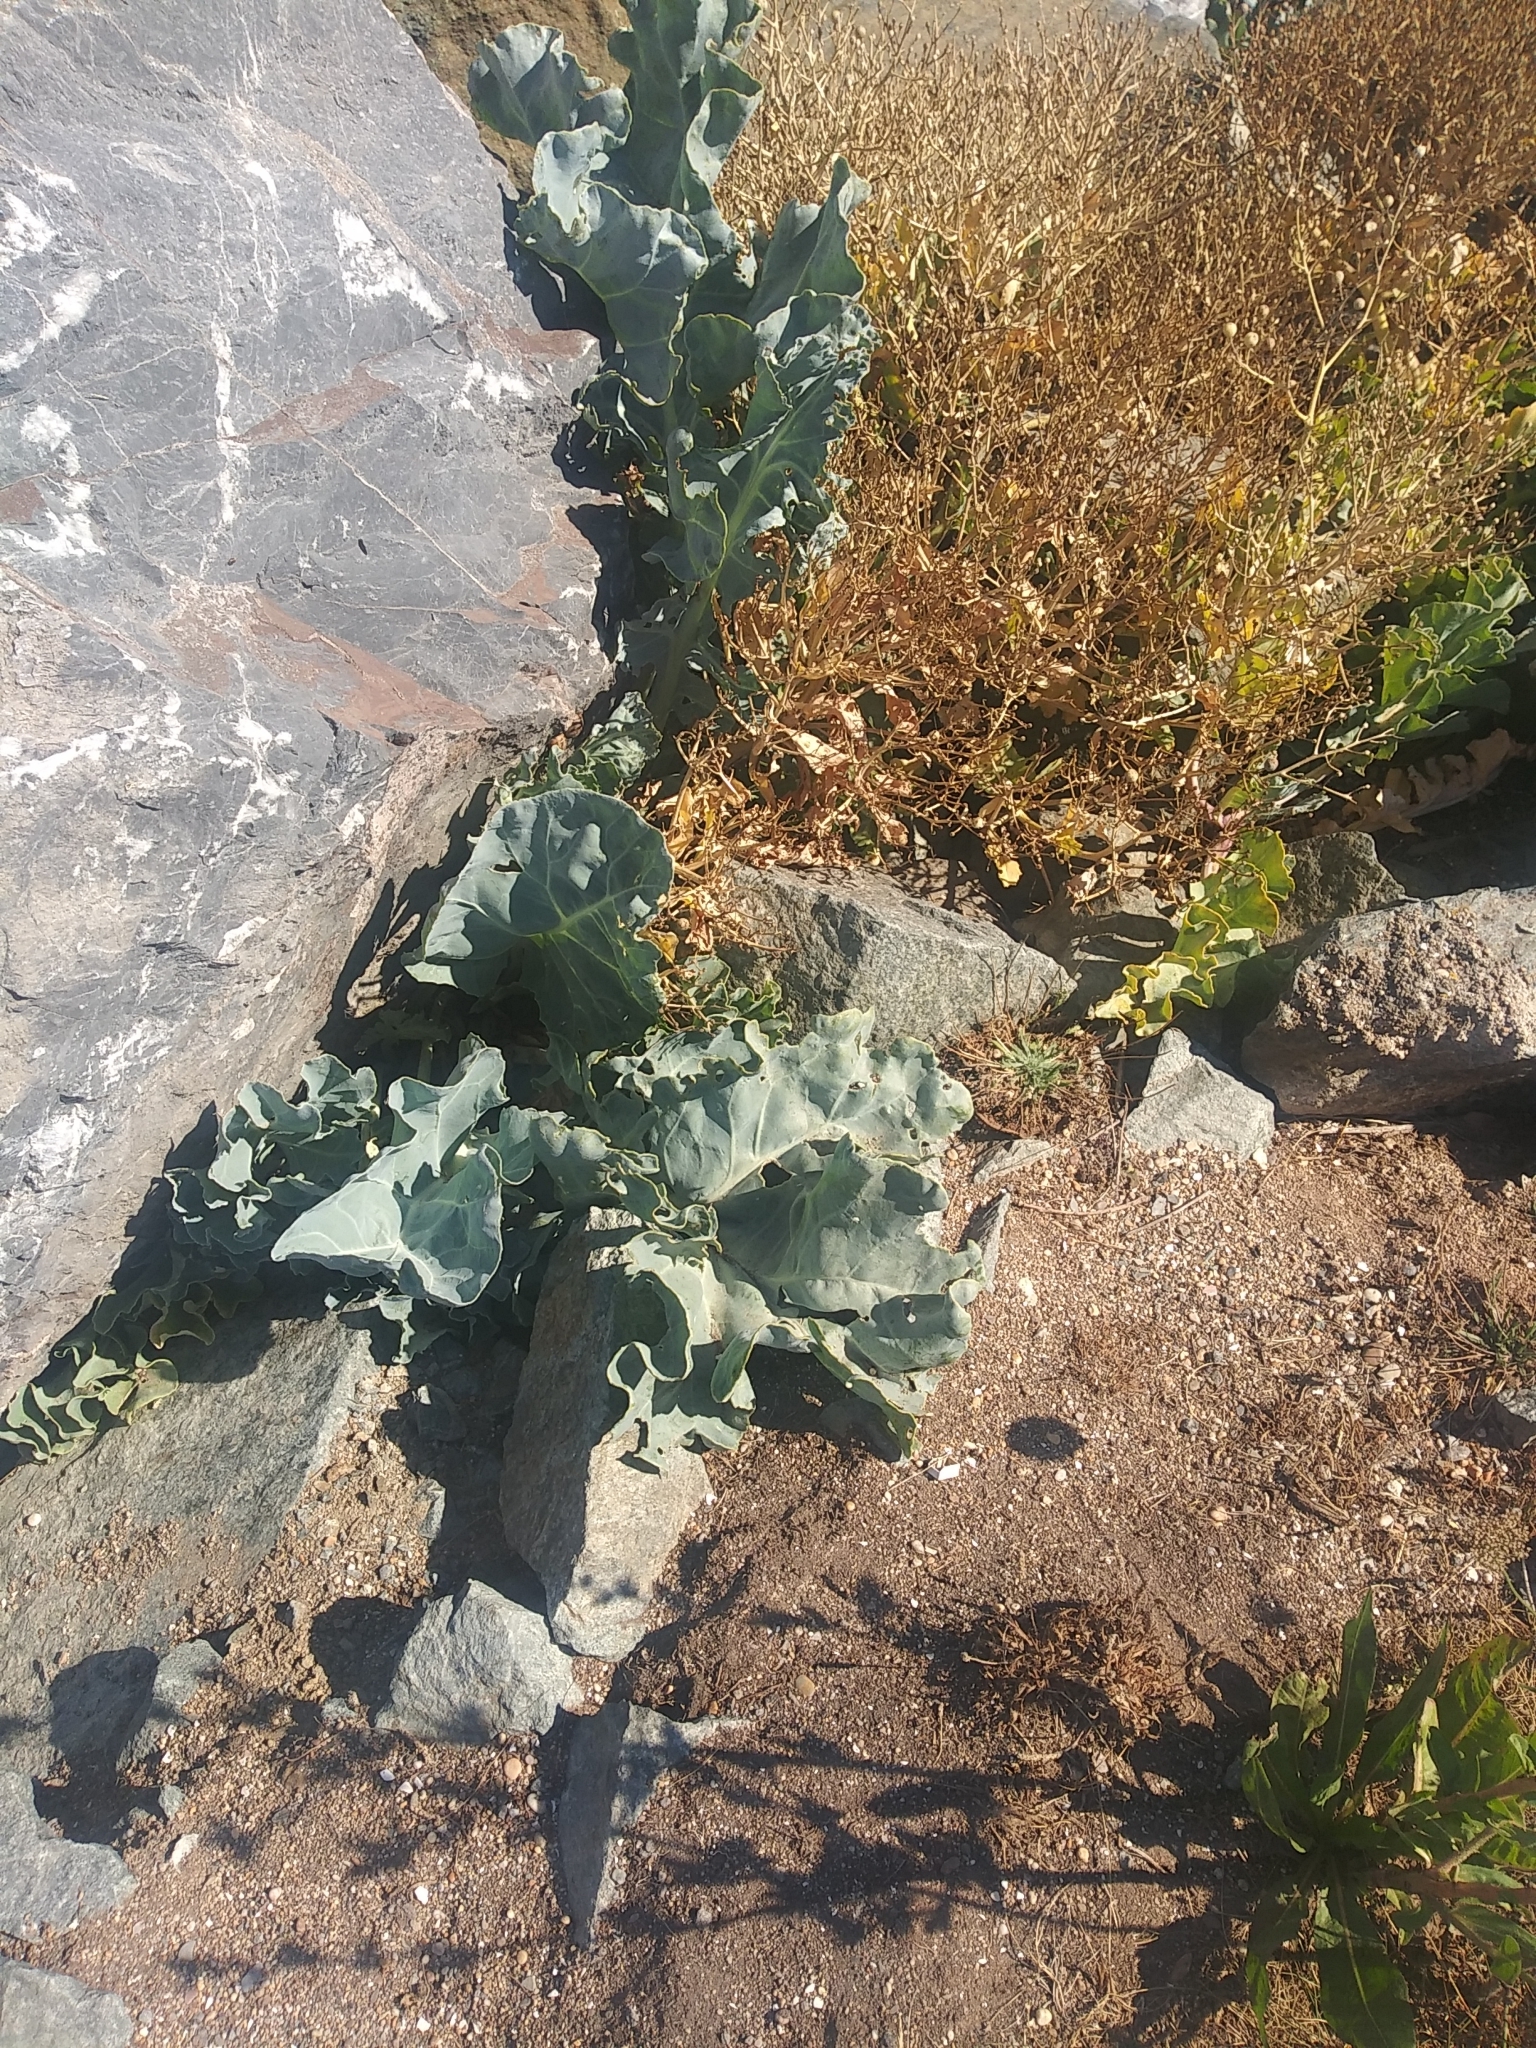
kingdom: Plantae
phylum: Tracheophyta
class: Magnoliopsida
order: Brassicales
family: Brassicaceae
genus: Crambe
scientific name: Crambe maritima
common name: Sea-kale
